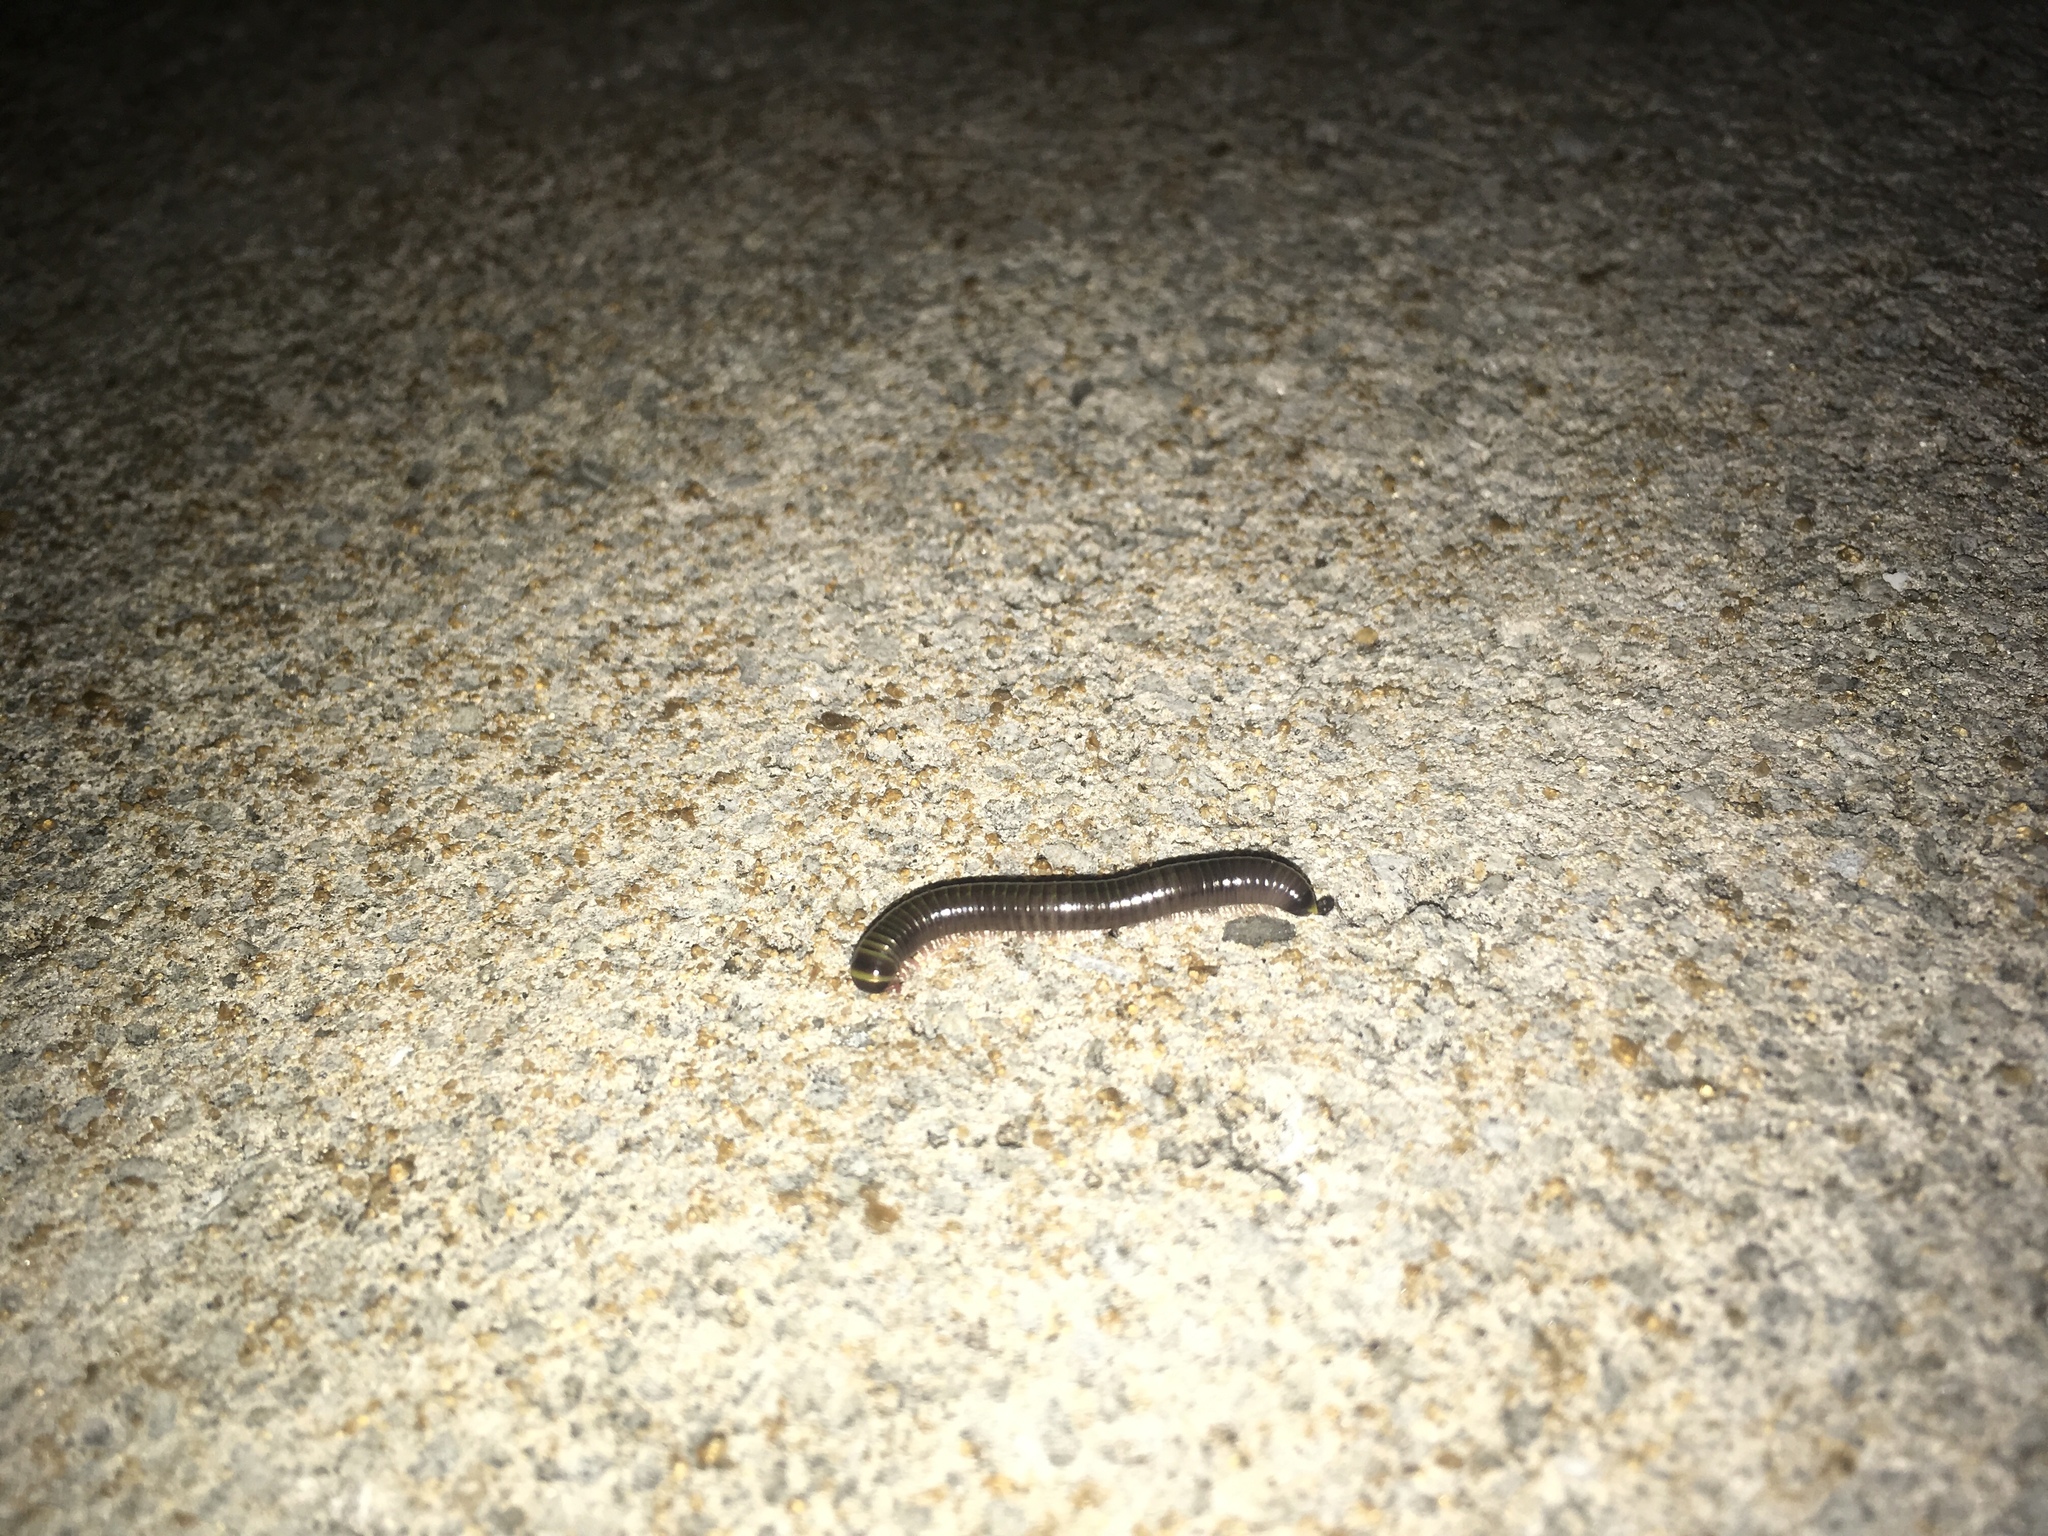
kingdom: Animalia
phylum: Arthropoda
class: Diplopoda
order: Spirobolida
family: Rhinocricidae
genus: Anadenobolus
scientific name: Anadenobolus monilicornis
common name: Caribbean millipede
